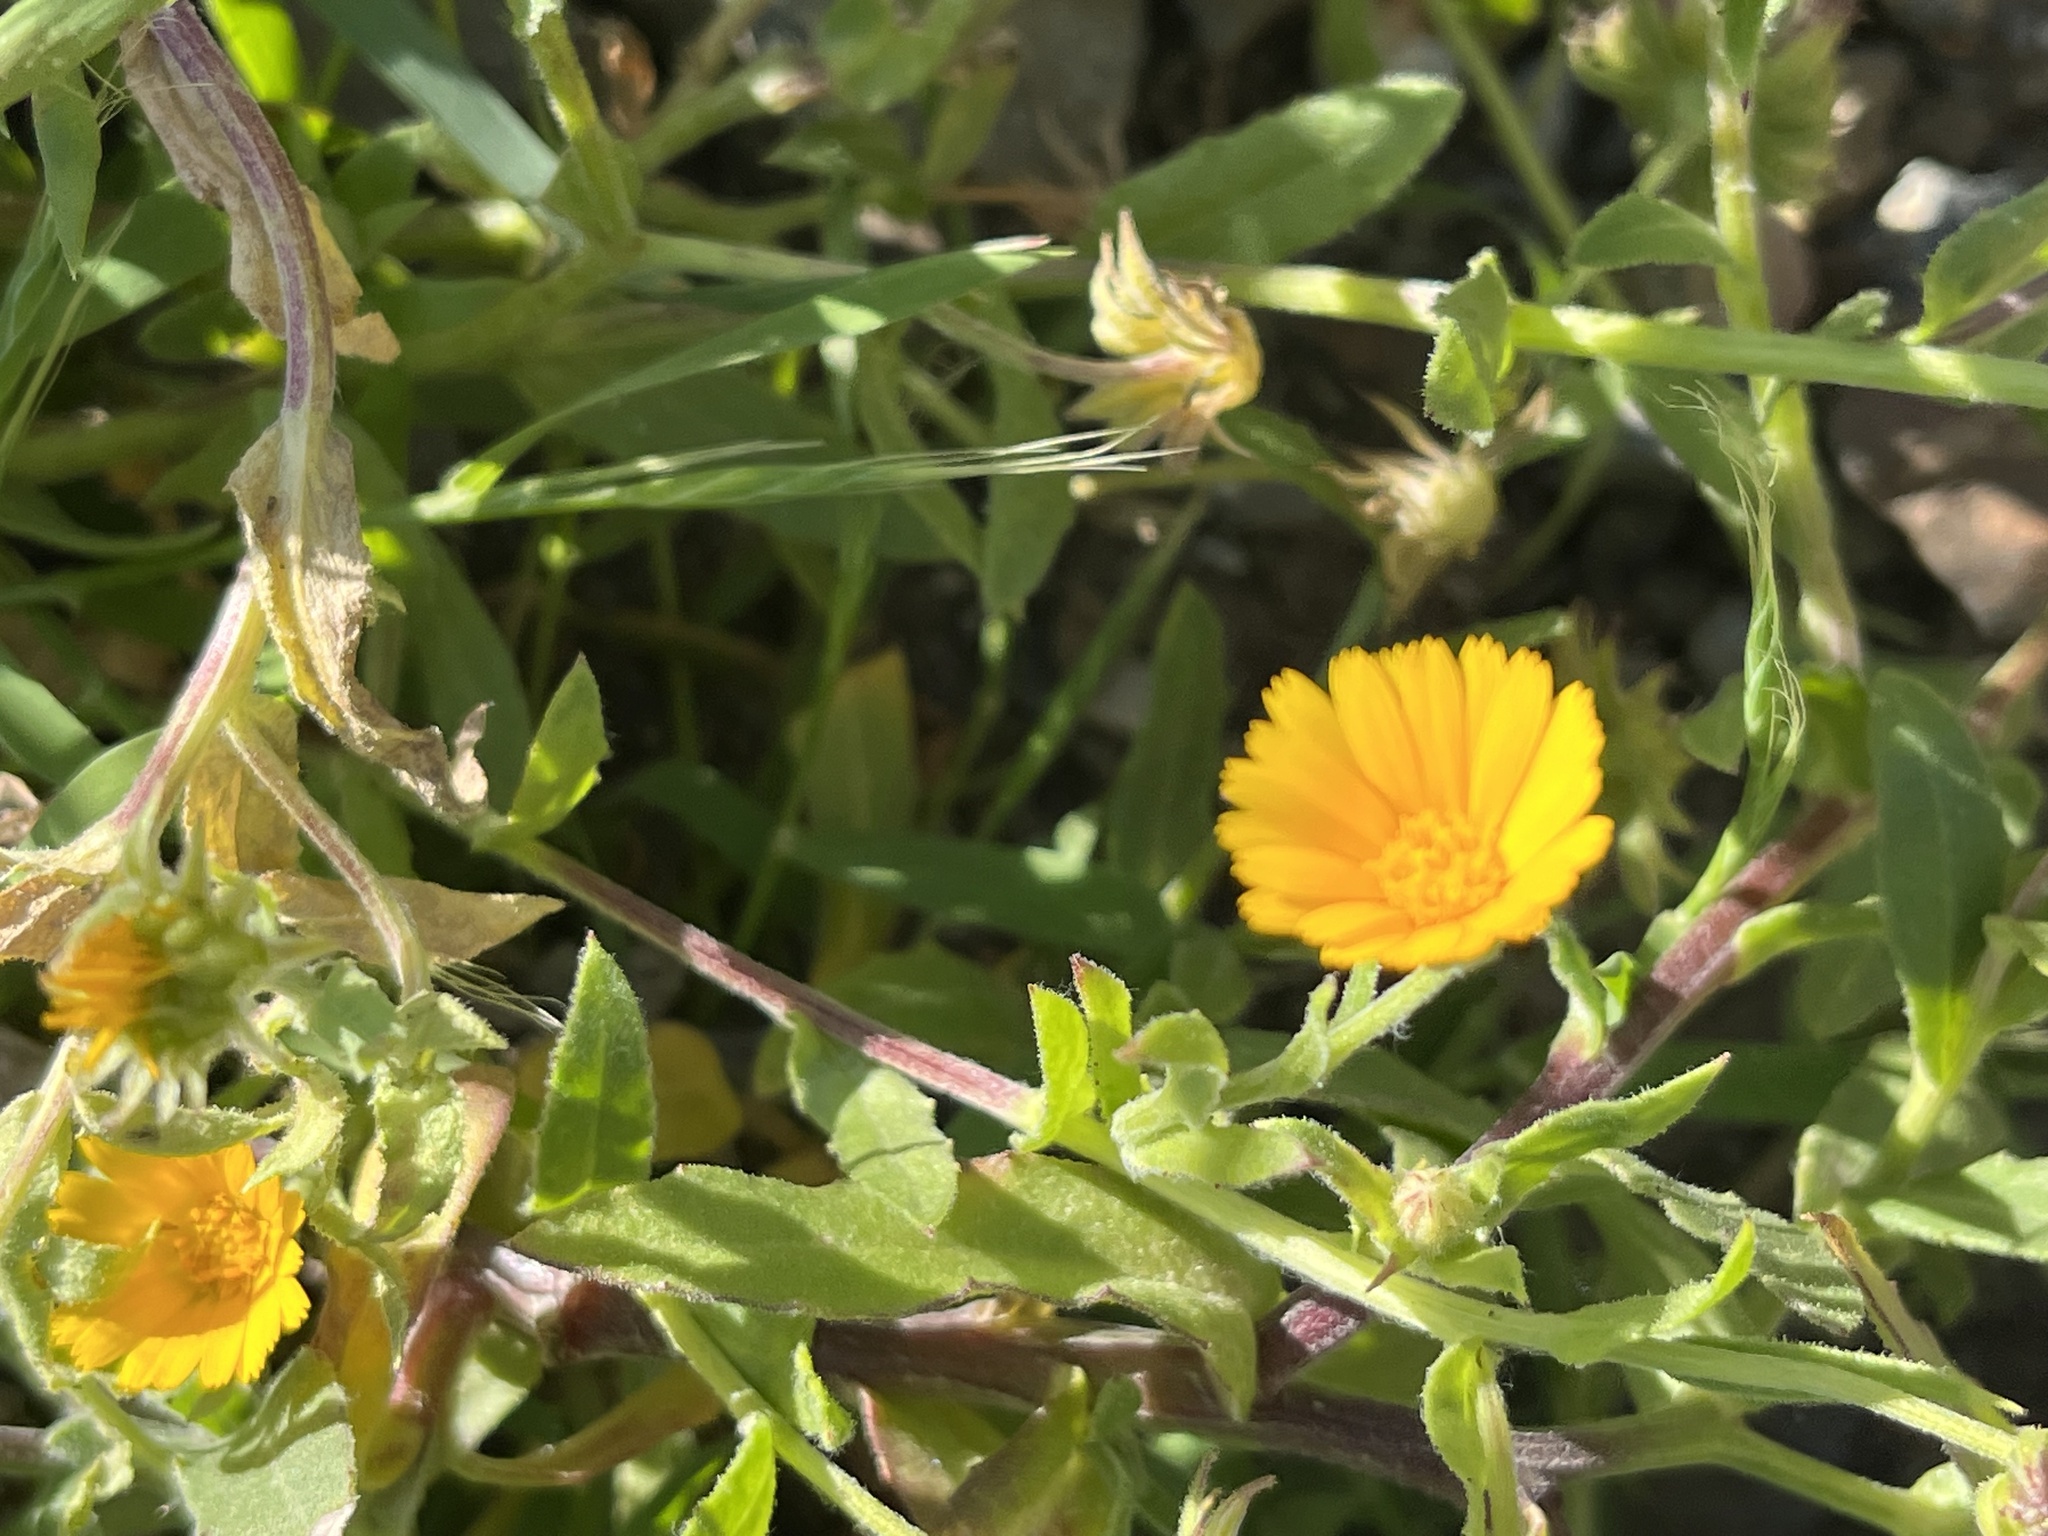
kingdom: Plantae
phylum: Tracheophyta
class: Magnoliopsida
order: Asterales
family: Asteraceae
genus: Calendula
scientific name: Calendula arvensis
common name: Field marigold
